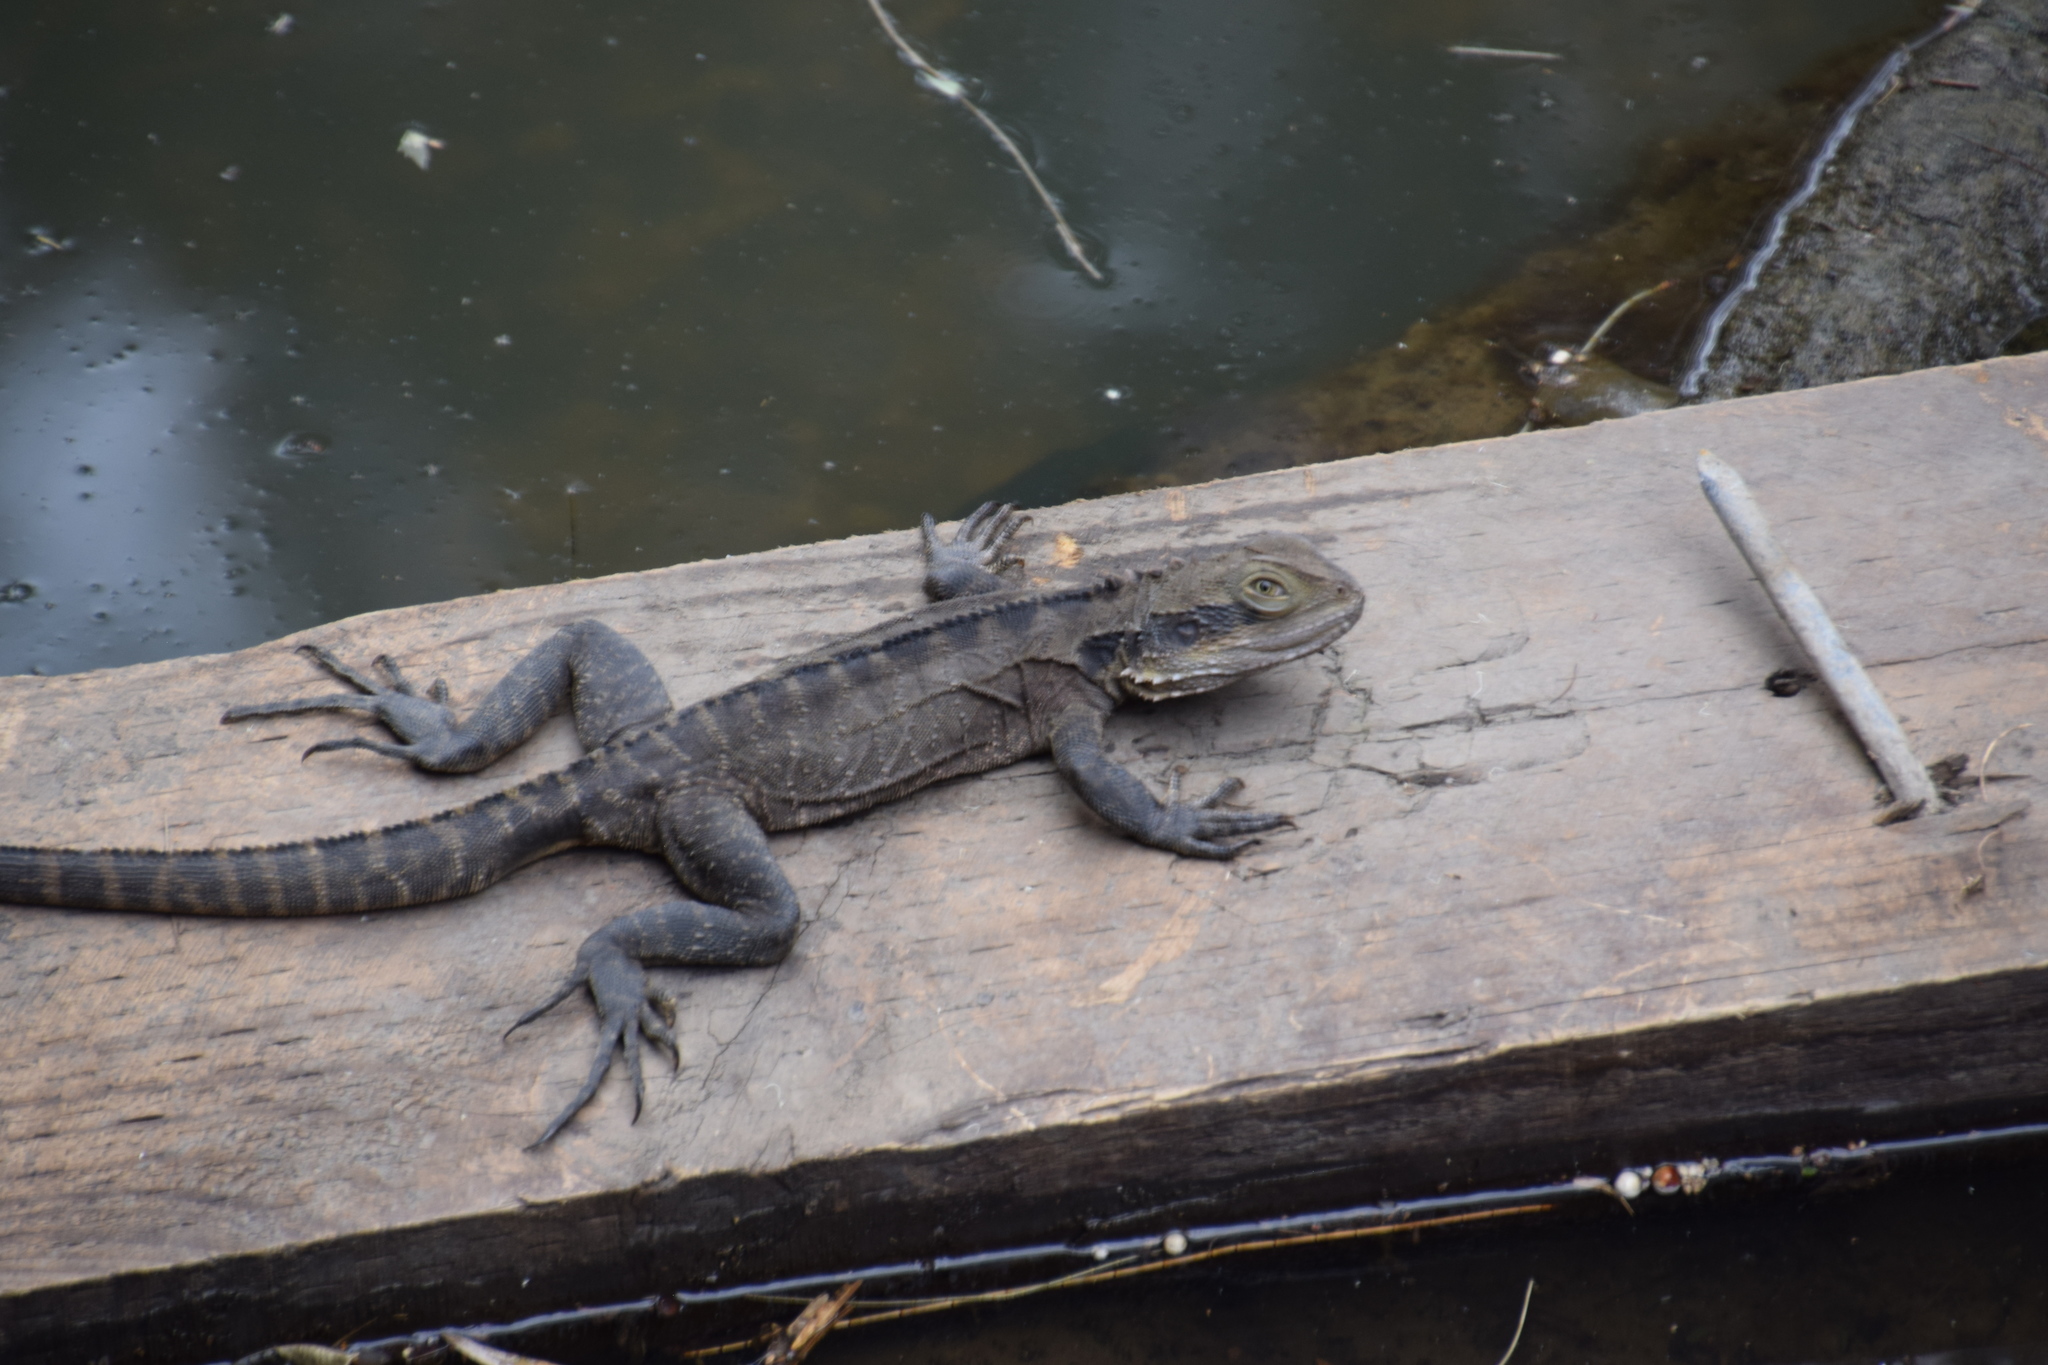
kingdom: Animalia
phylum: Chordata
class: Squamata
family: Agamidae
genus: Intellagama
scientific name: Intellagama lesueurii
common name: Eastern water dragon
